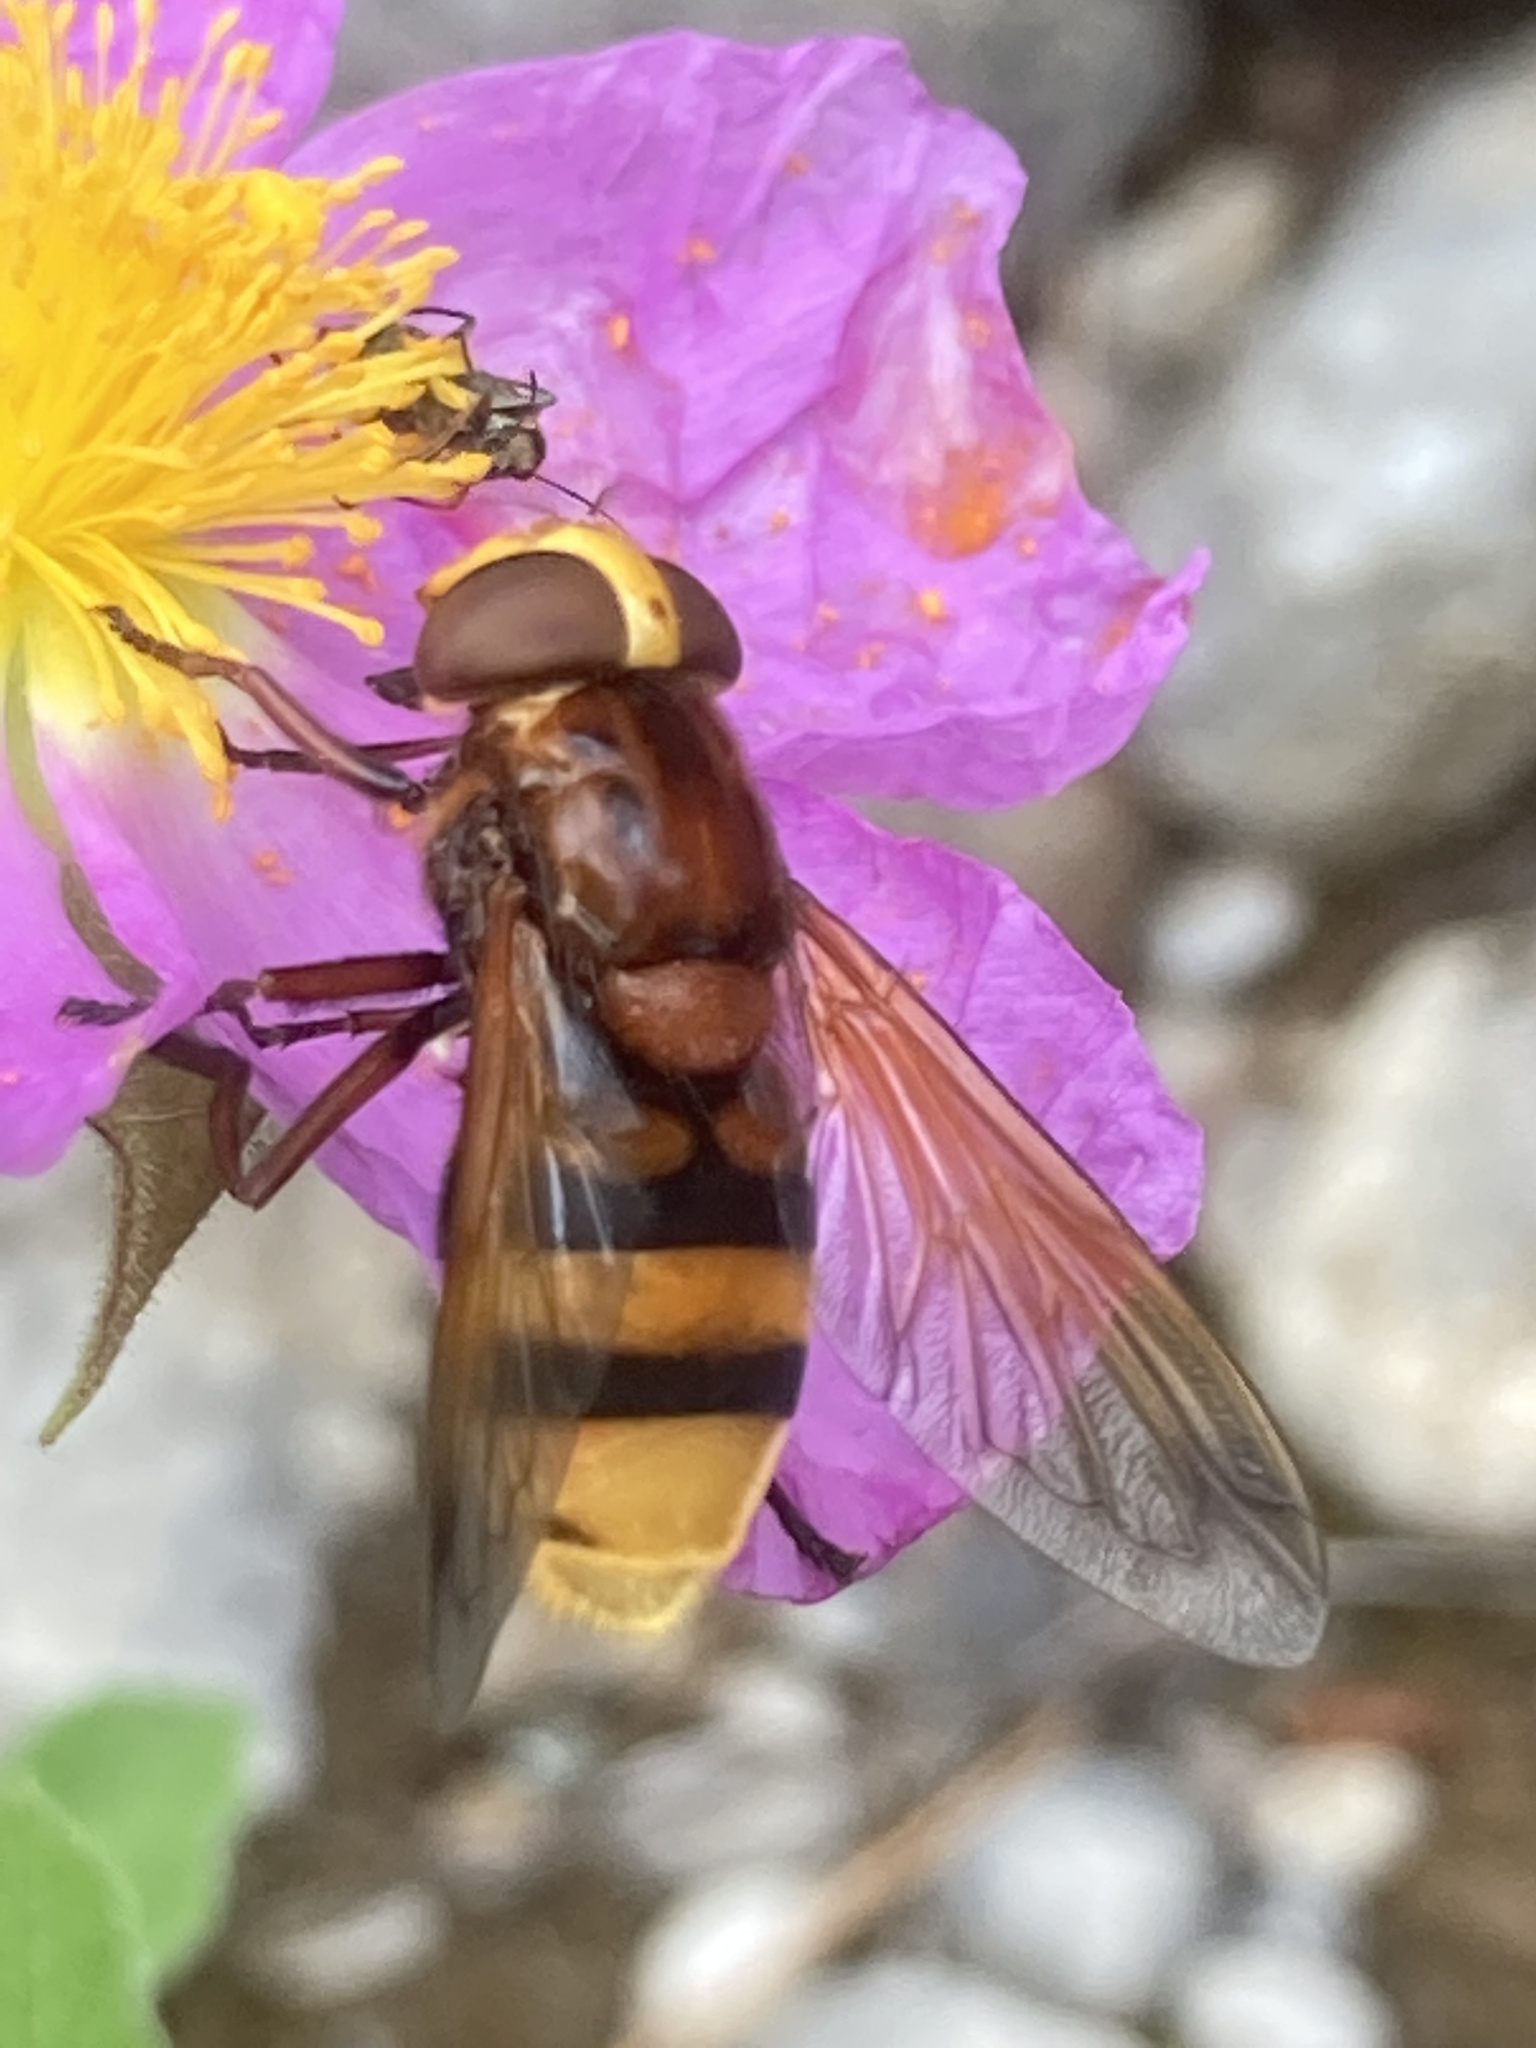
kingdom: Animalia
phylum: Arthropoda
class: Insecta
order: Diptera
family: Syrphidae
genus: Volucella
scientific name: Volucella zonaria
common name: Hornet hoverfly
